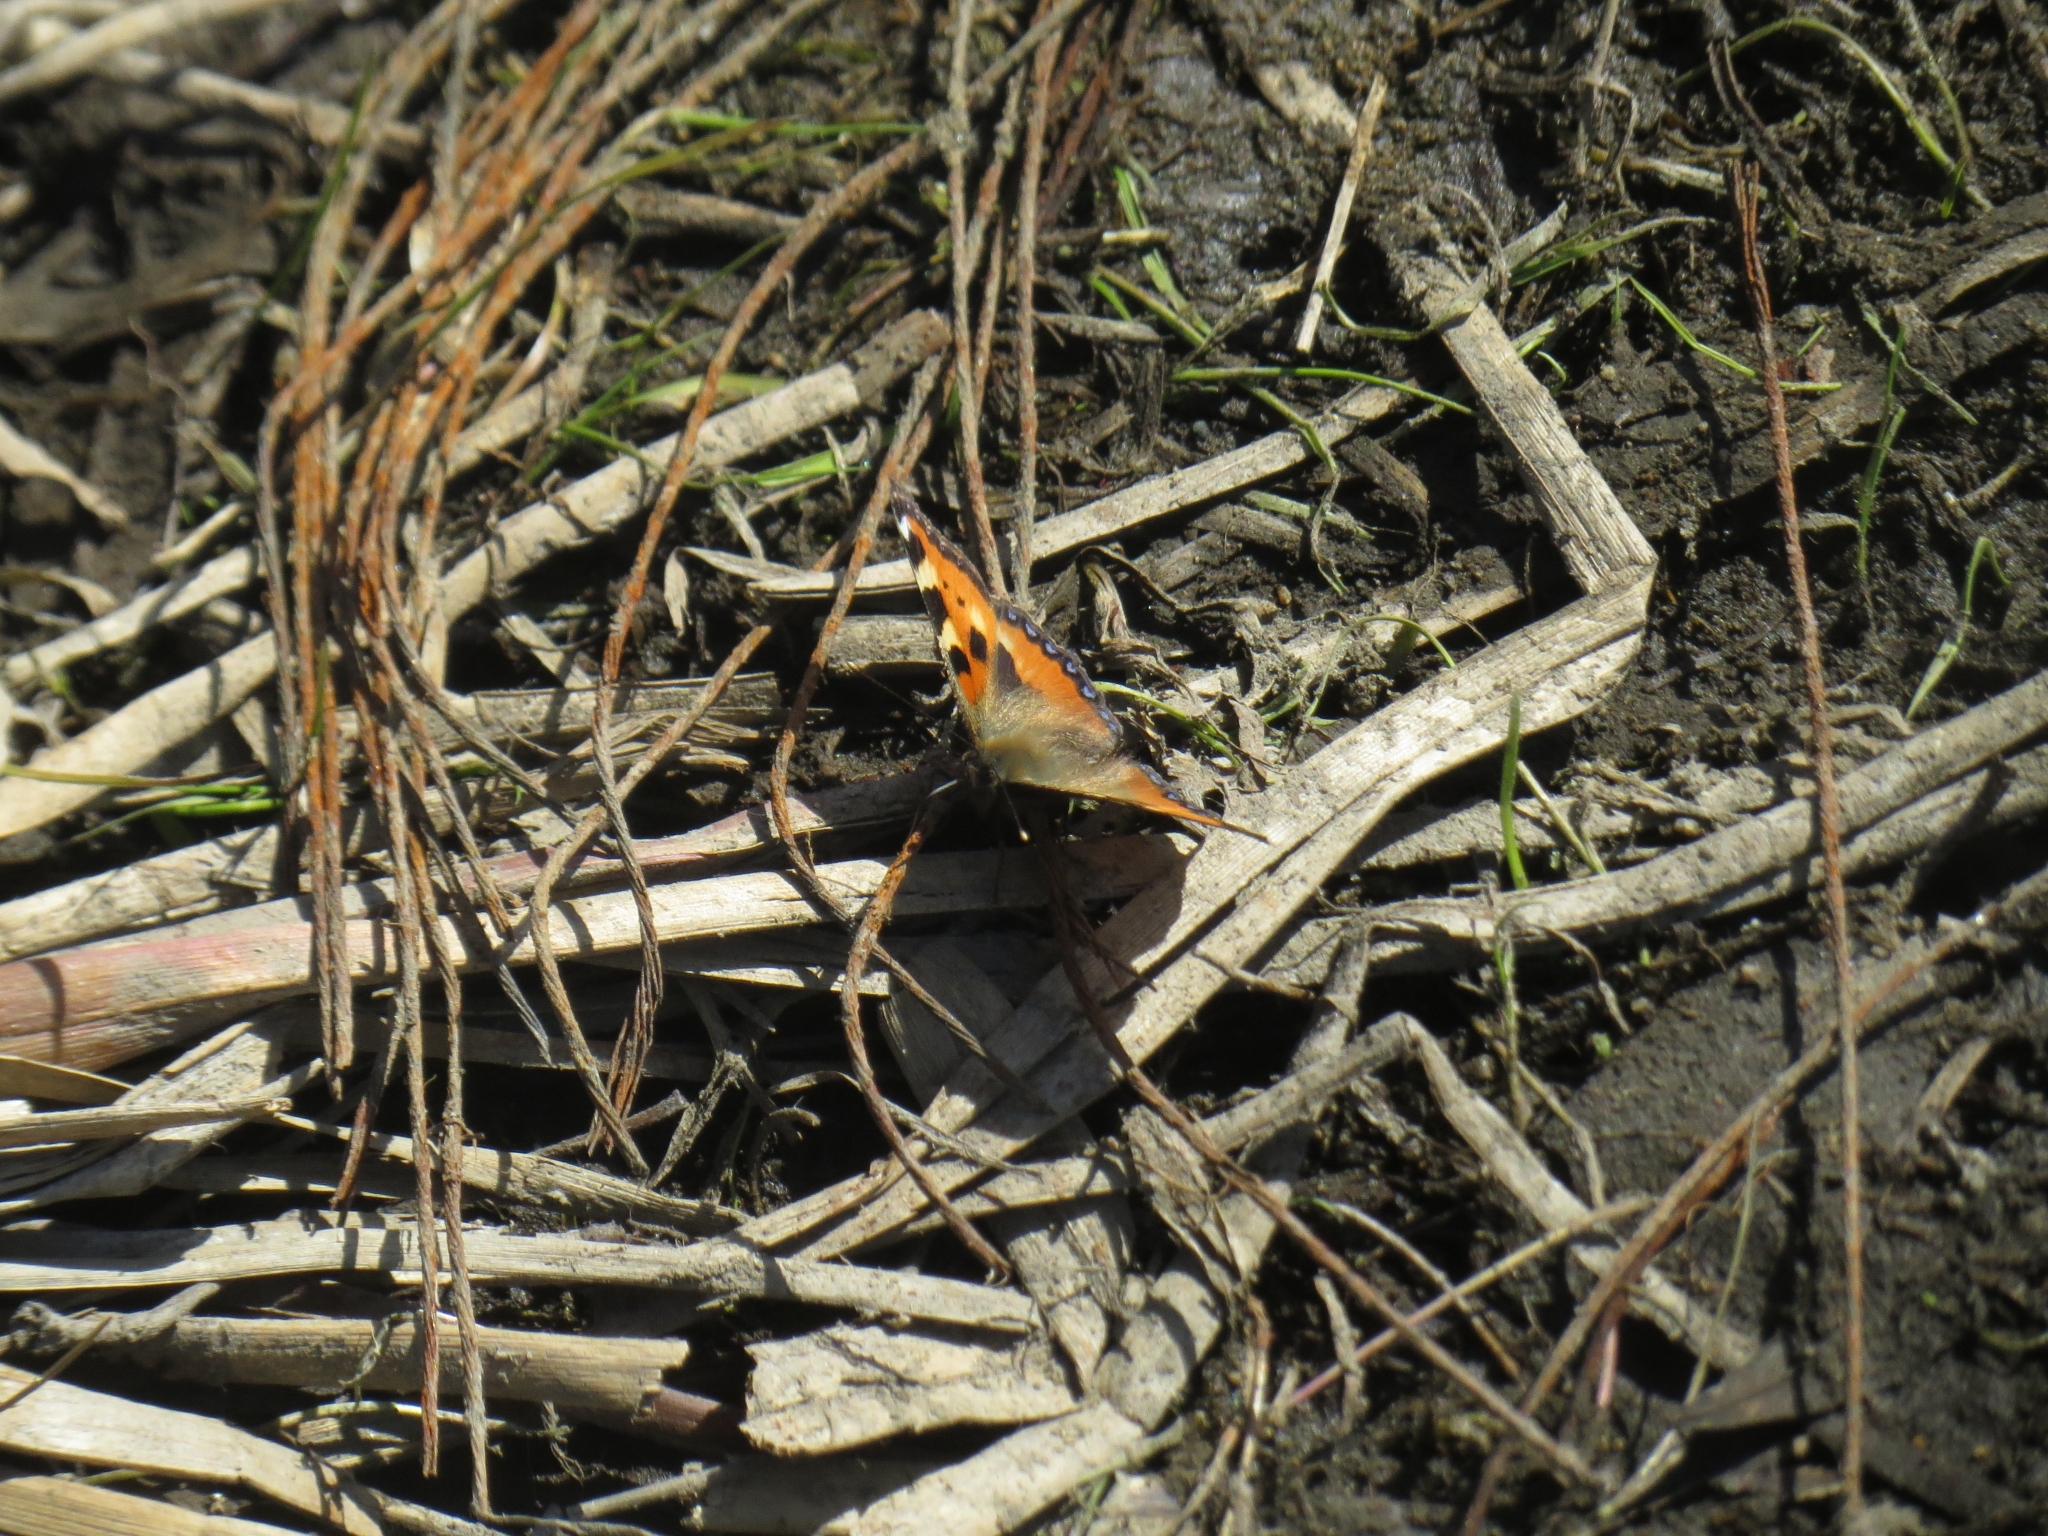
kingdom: Animalia
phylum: Arthropoda
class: Insecta
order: Lepidoptera
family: Nymphalidae
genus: Aglais
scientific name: Aglais urticae
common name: Small tortoiseshell
